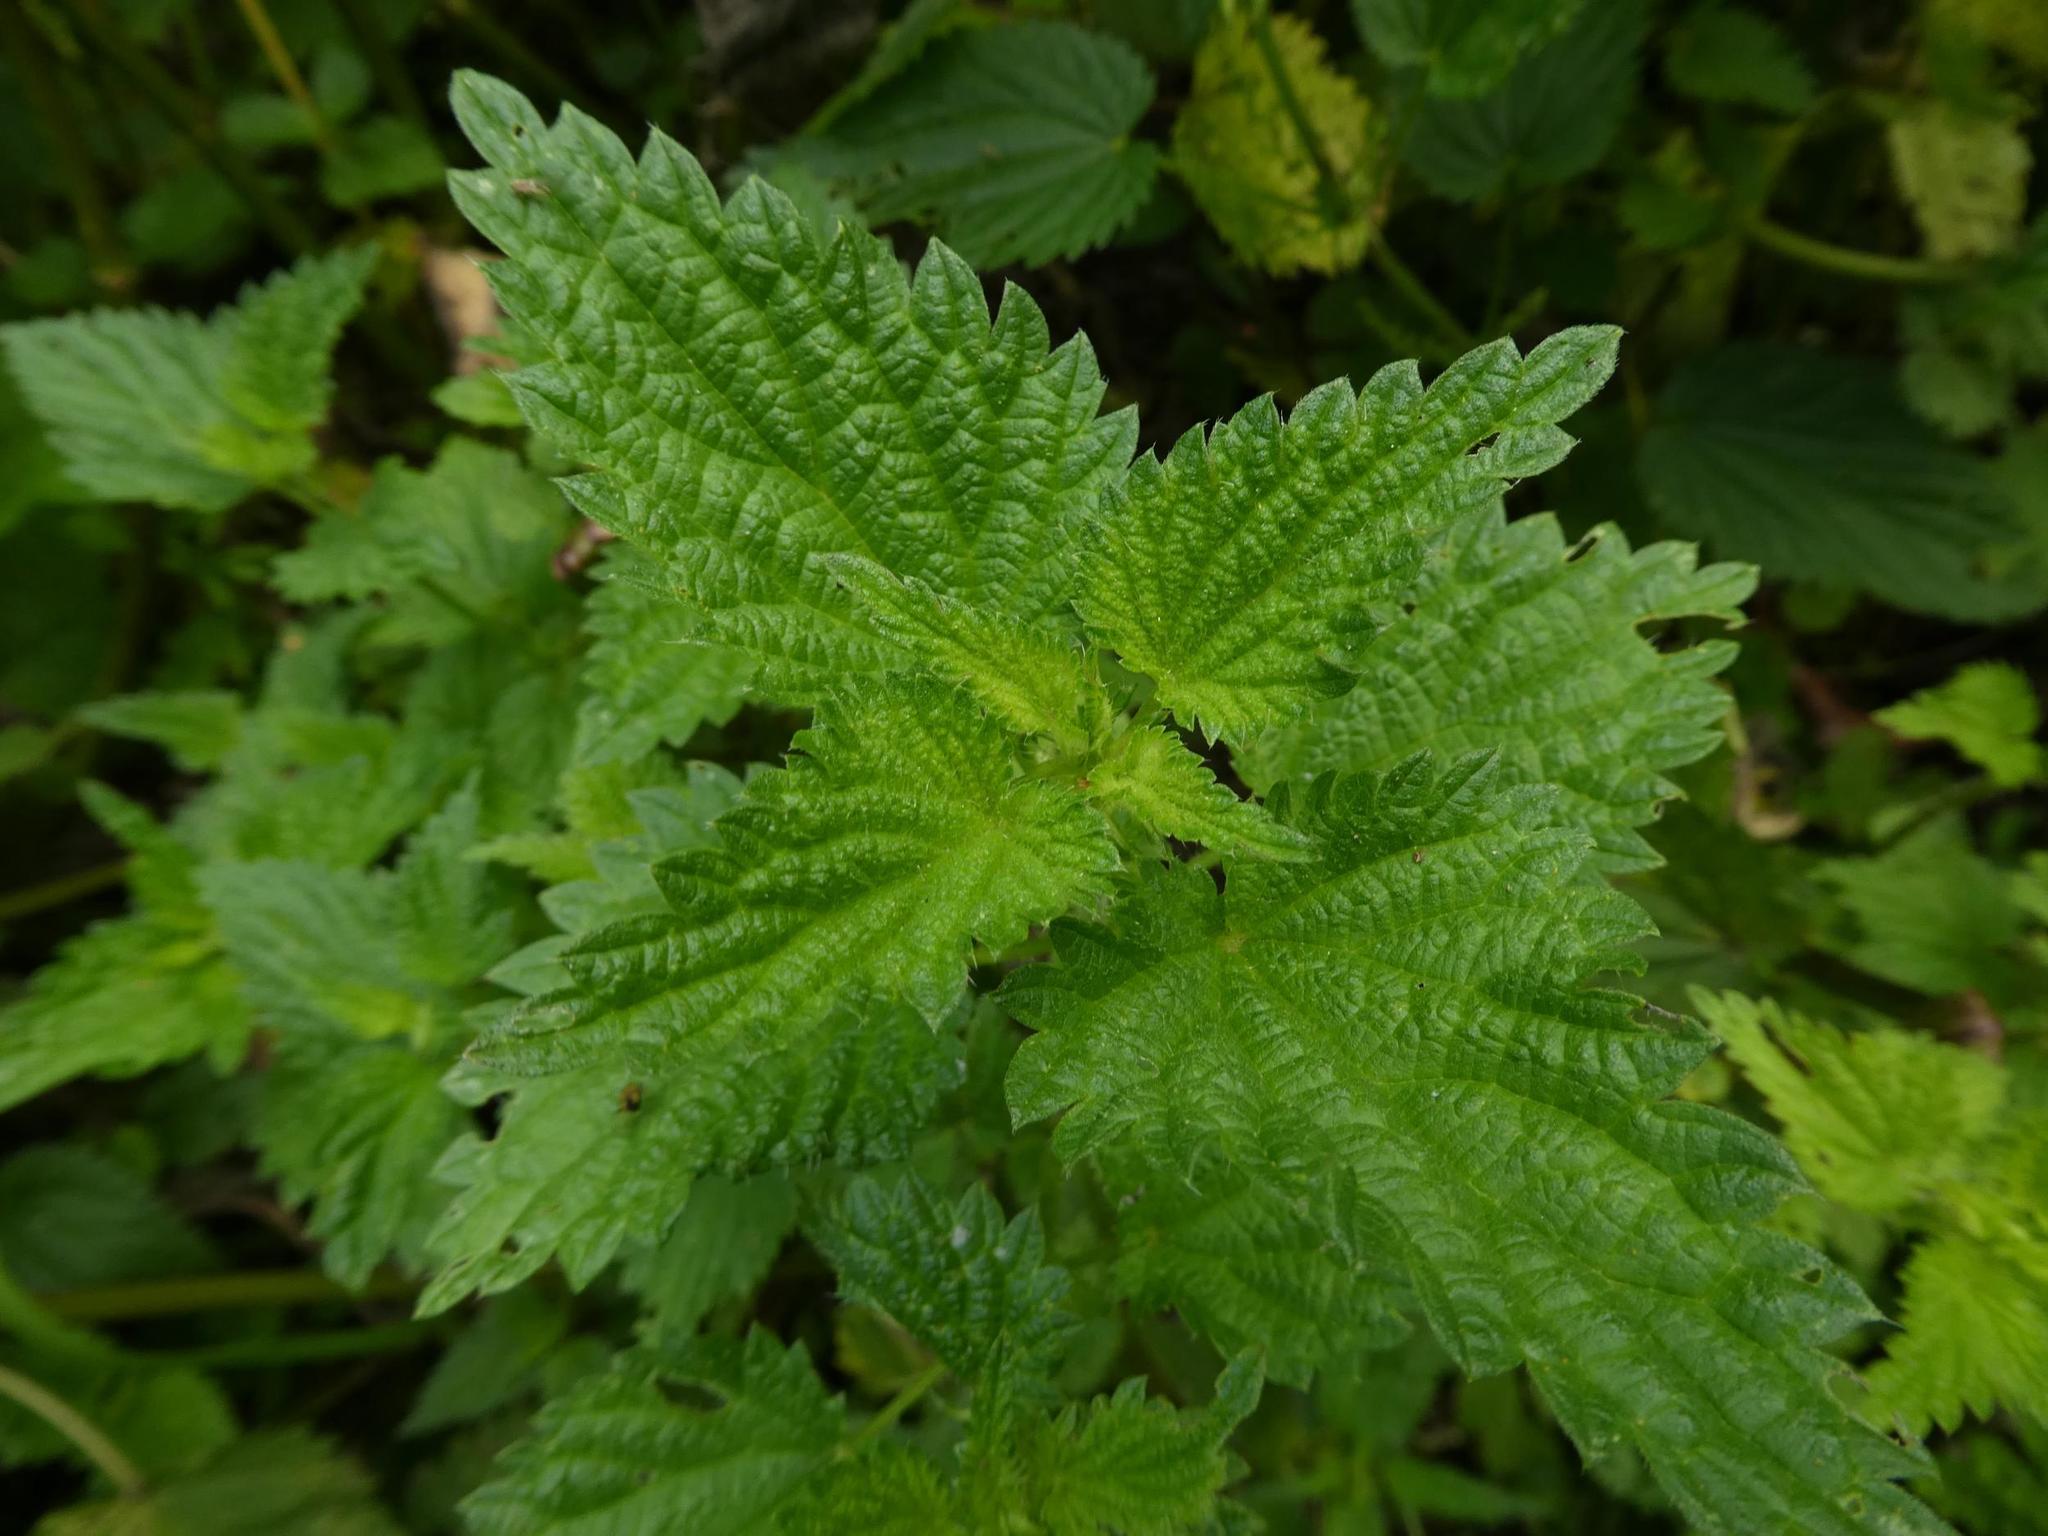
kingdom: Plantae
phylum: Tracheophyta
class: Magnoliopsida
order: Rosales
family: Urticaceae
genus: Urtica
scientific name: Urtica dioica
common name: Common nettle
